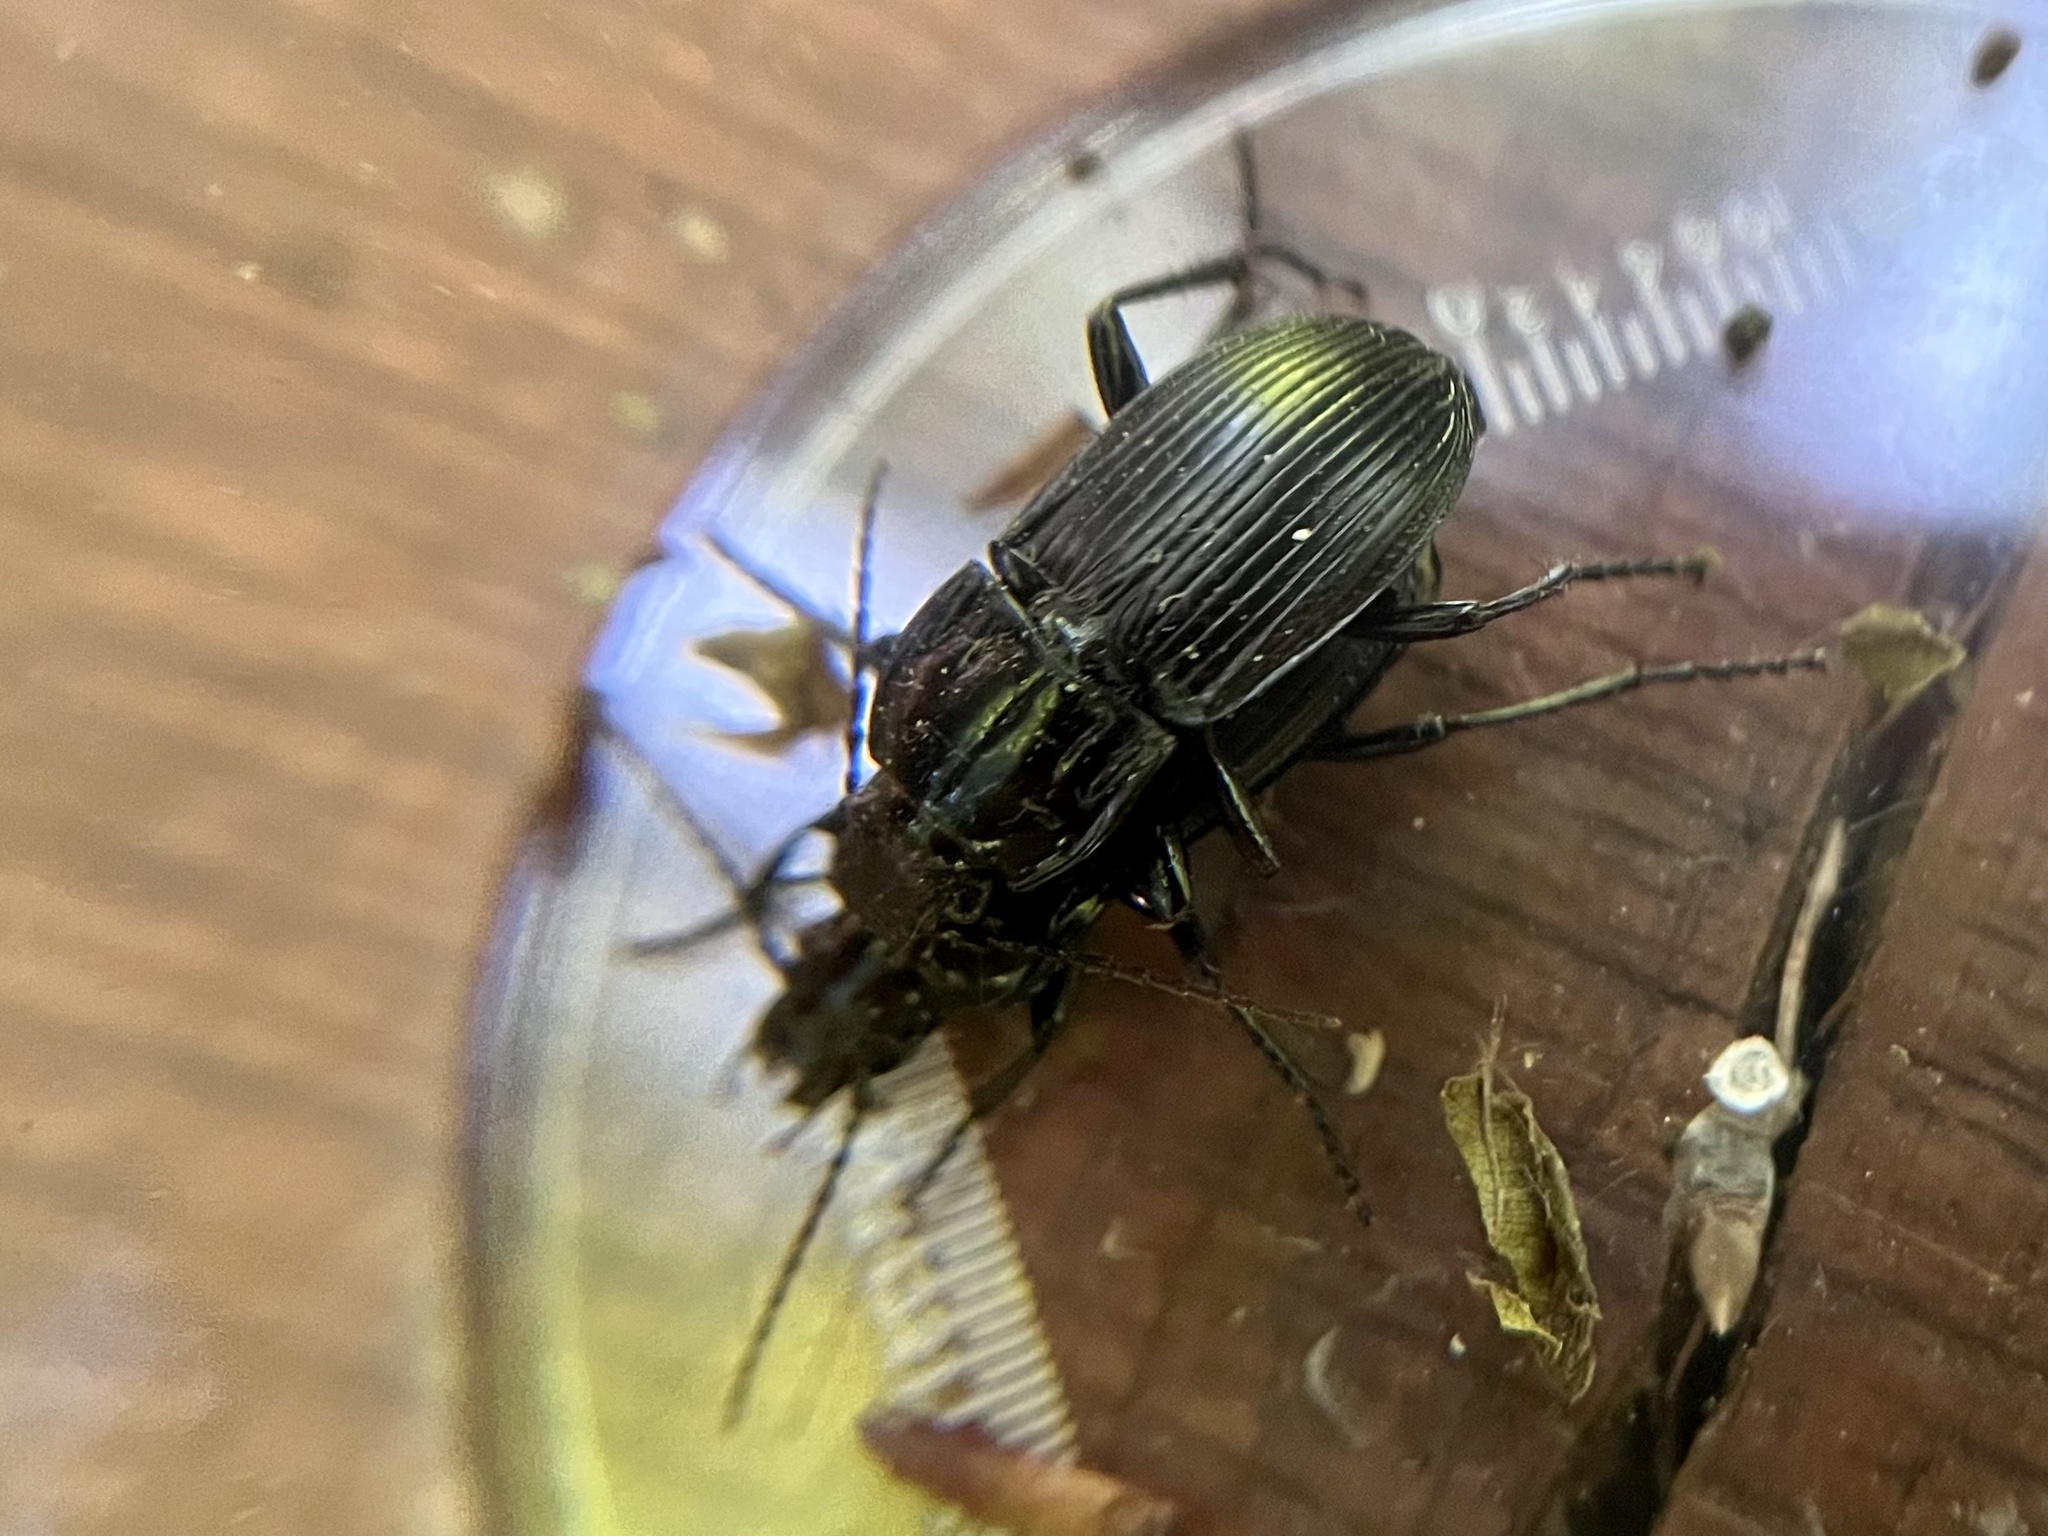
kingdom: Animalia
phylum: Arthropoda
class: Insecta
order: Coleoptera
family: Carabidae
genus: Abax
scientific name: Abax parallelepipedus
